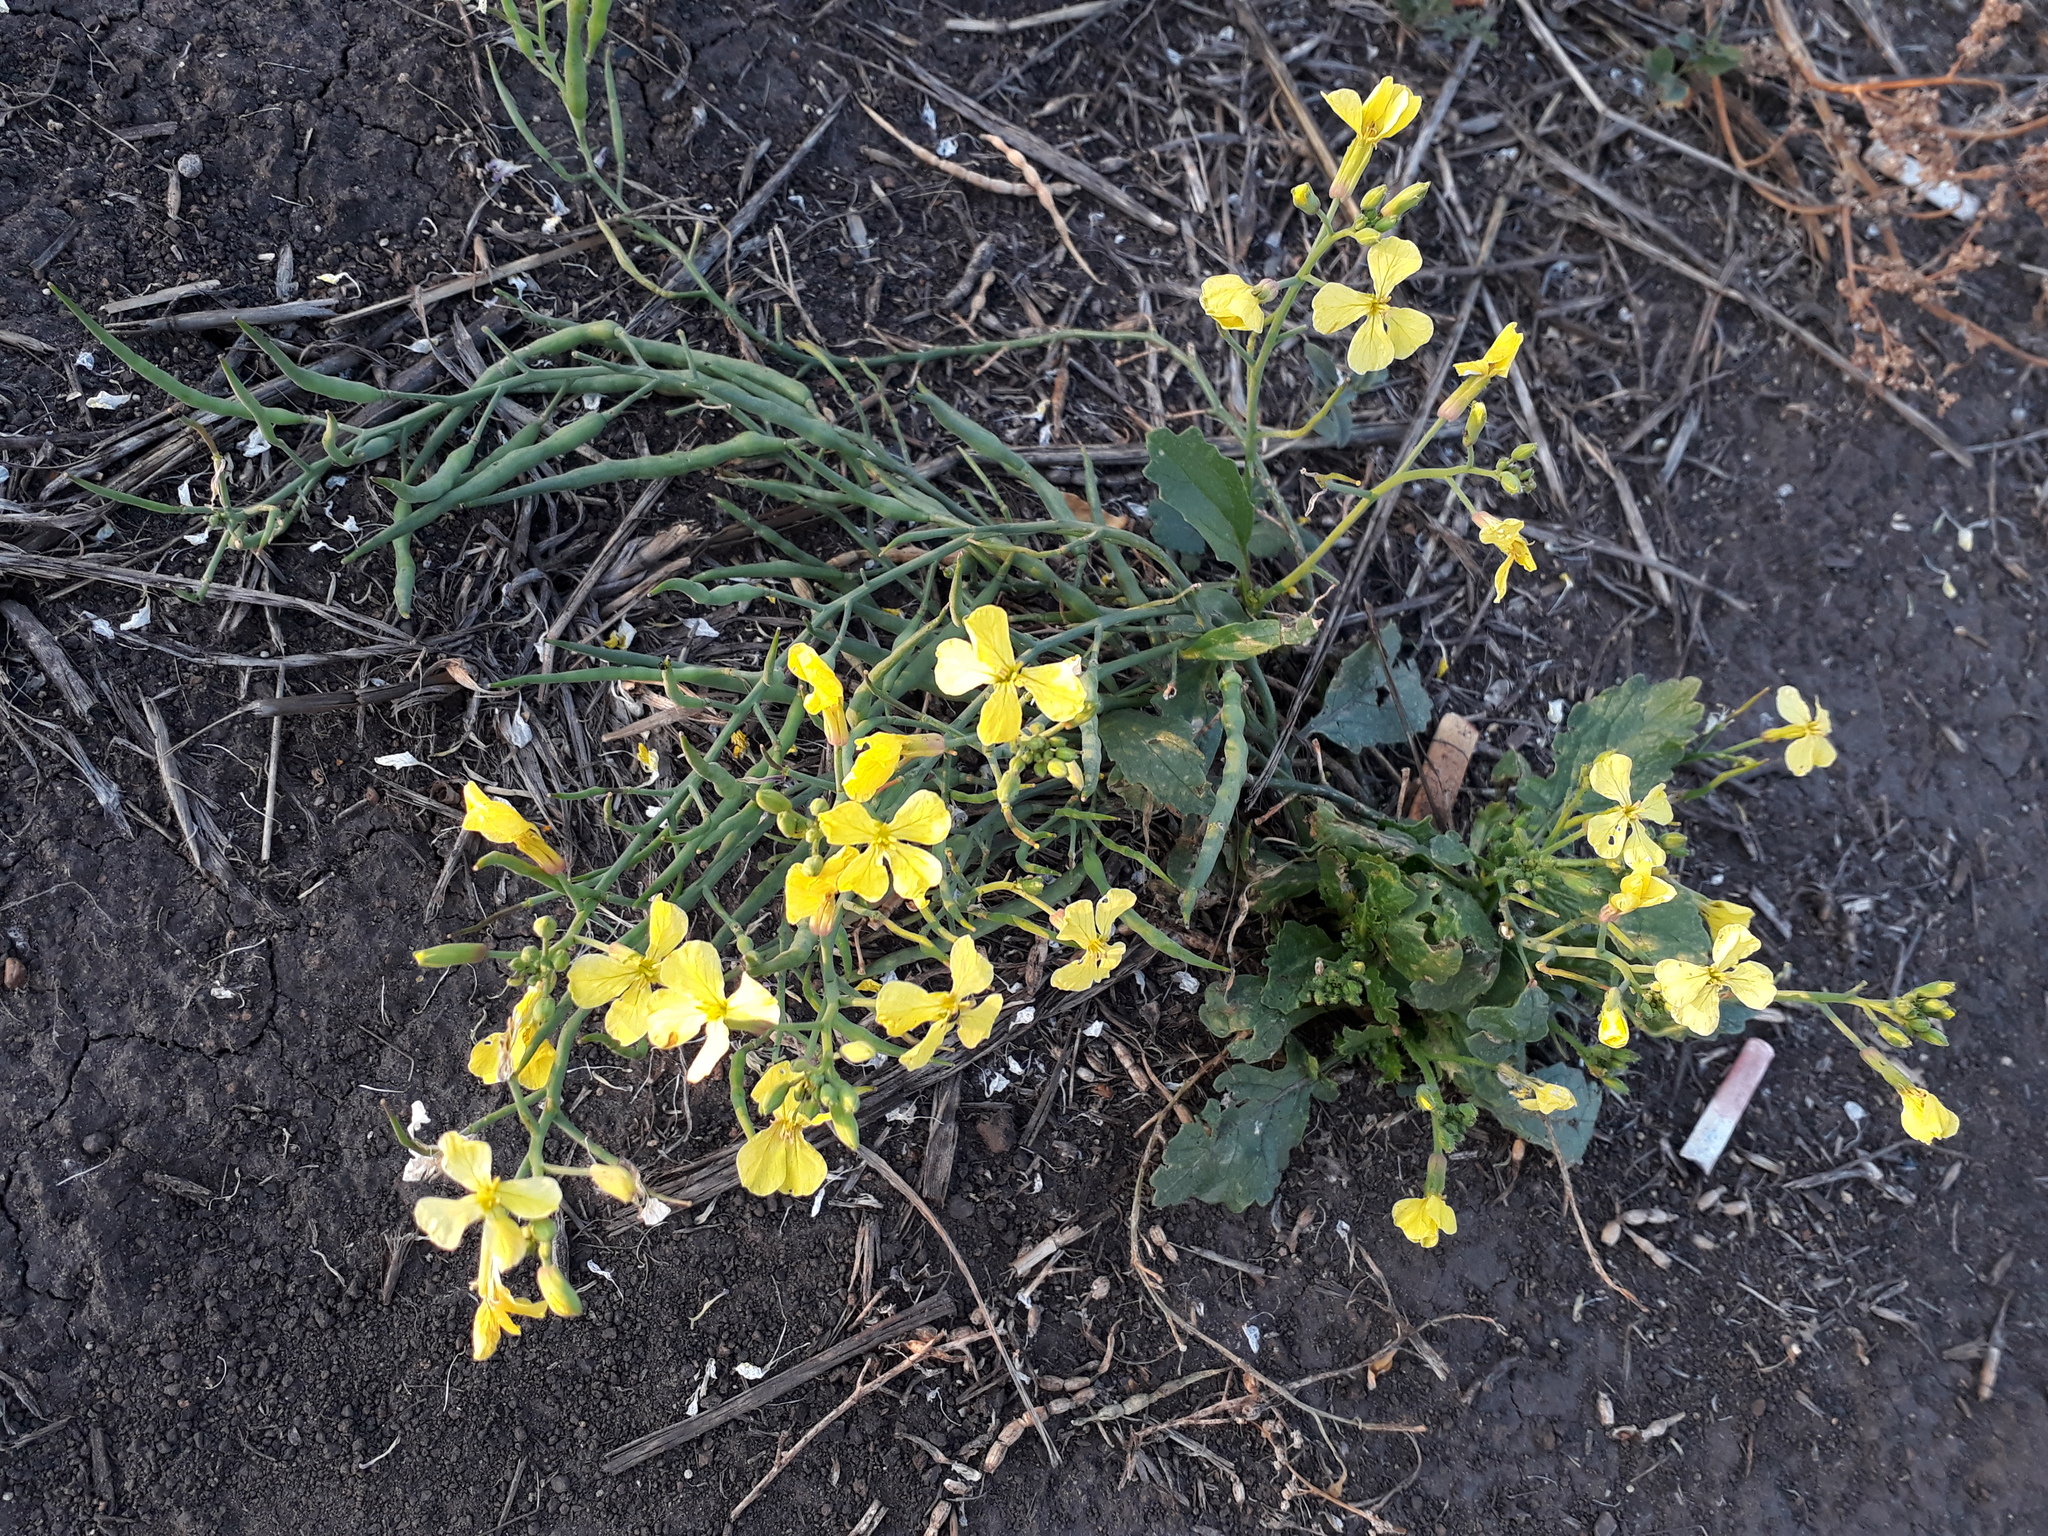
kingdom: Plantae
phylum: Tracheophyta
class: Magnoliopsida
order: Brassicales
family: Brassicaceae
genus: Raphanus
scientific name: Raphanus raphanistrum
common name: Wild radish
